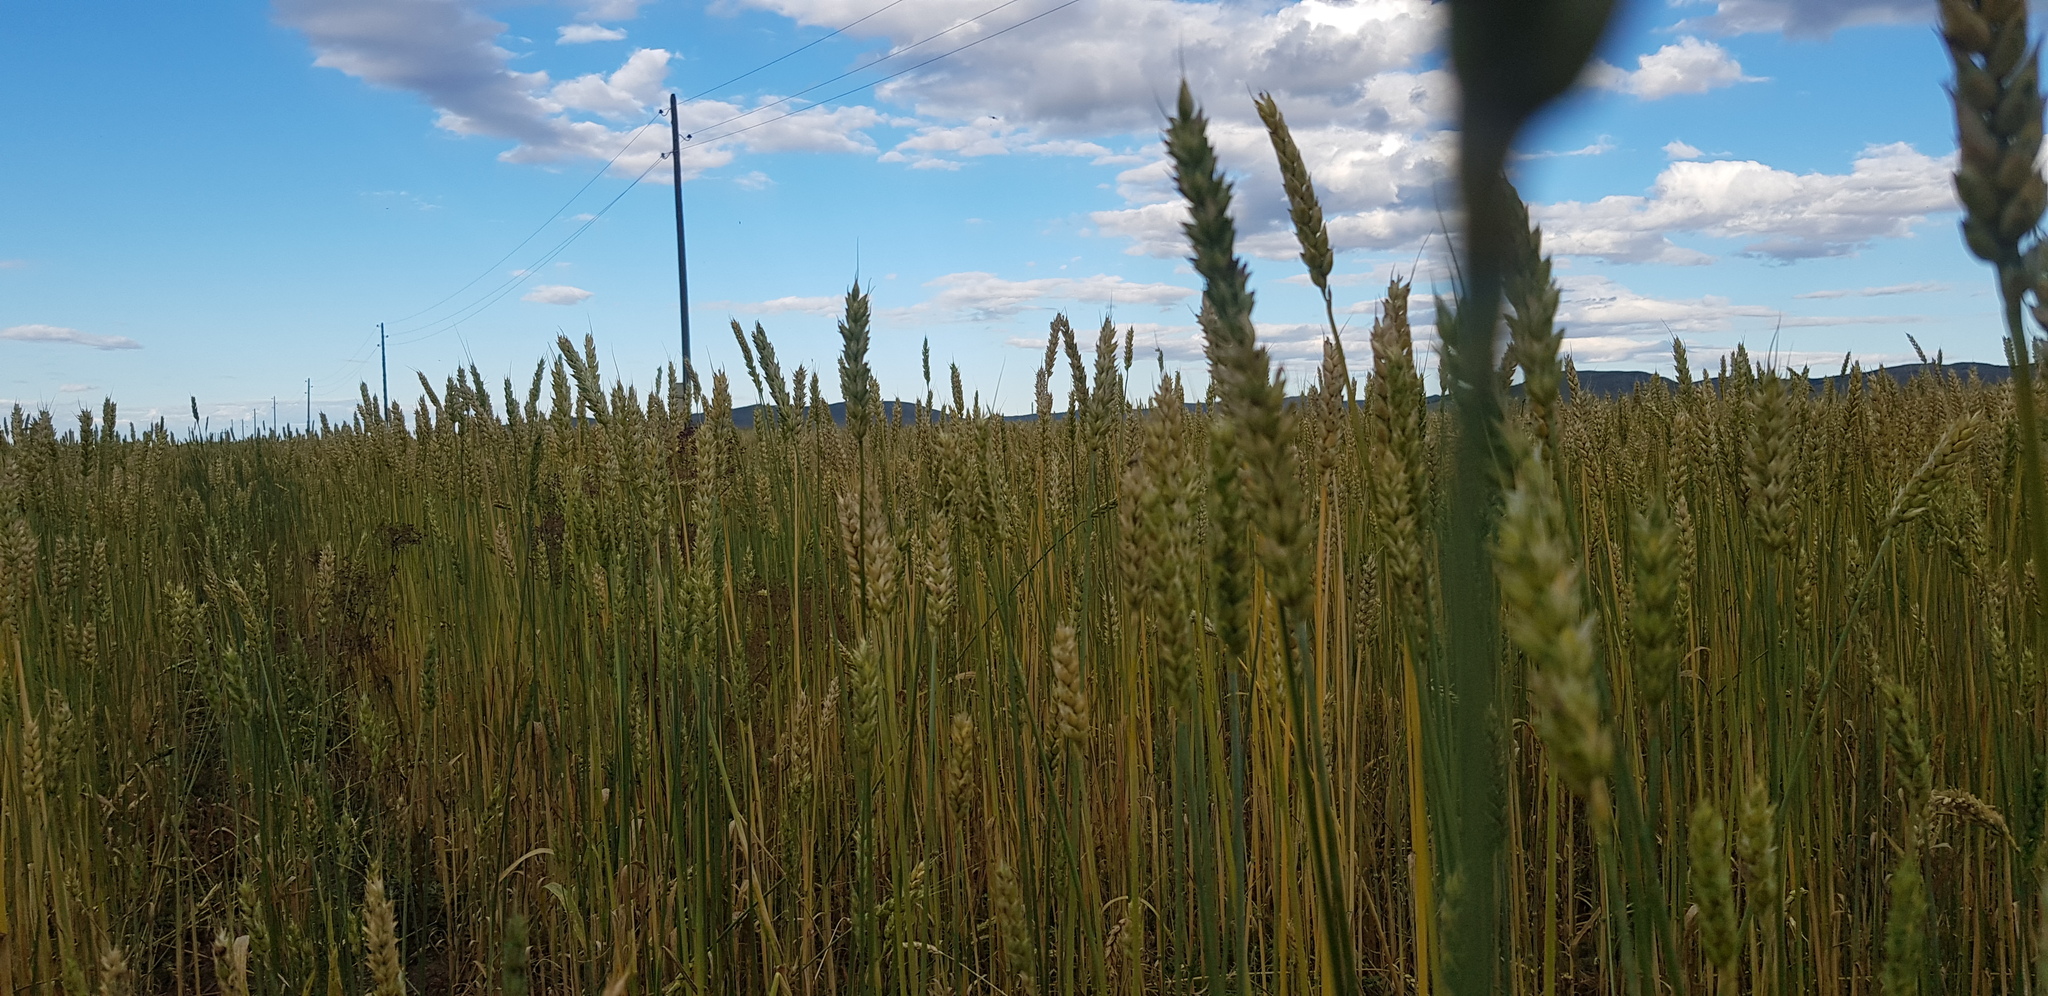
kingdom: Plantae
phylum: Tracheophyta
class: Liliopsida
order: Poales
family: Poaceae
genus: Triticum
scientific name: Triticum aestivum
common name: Common wheat
